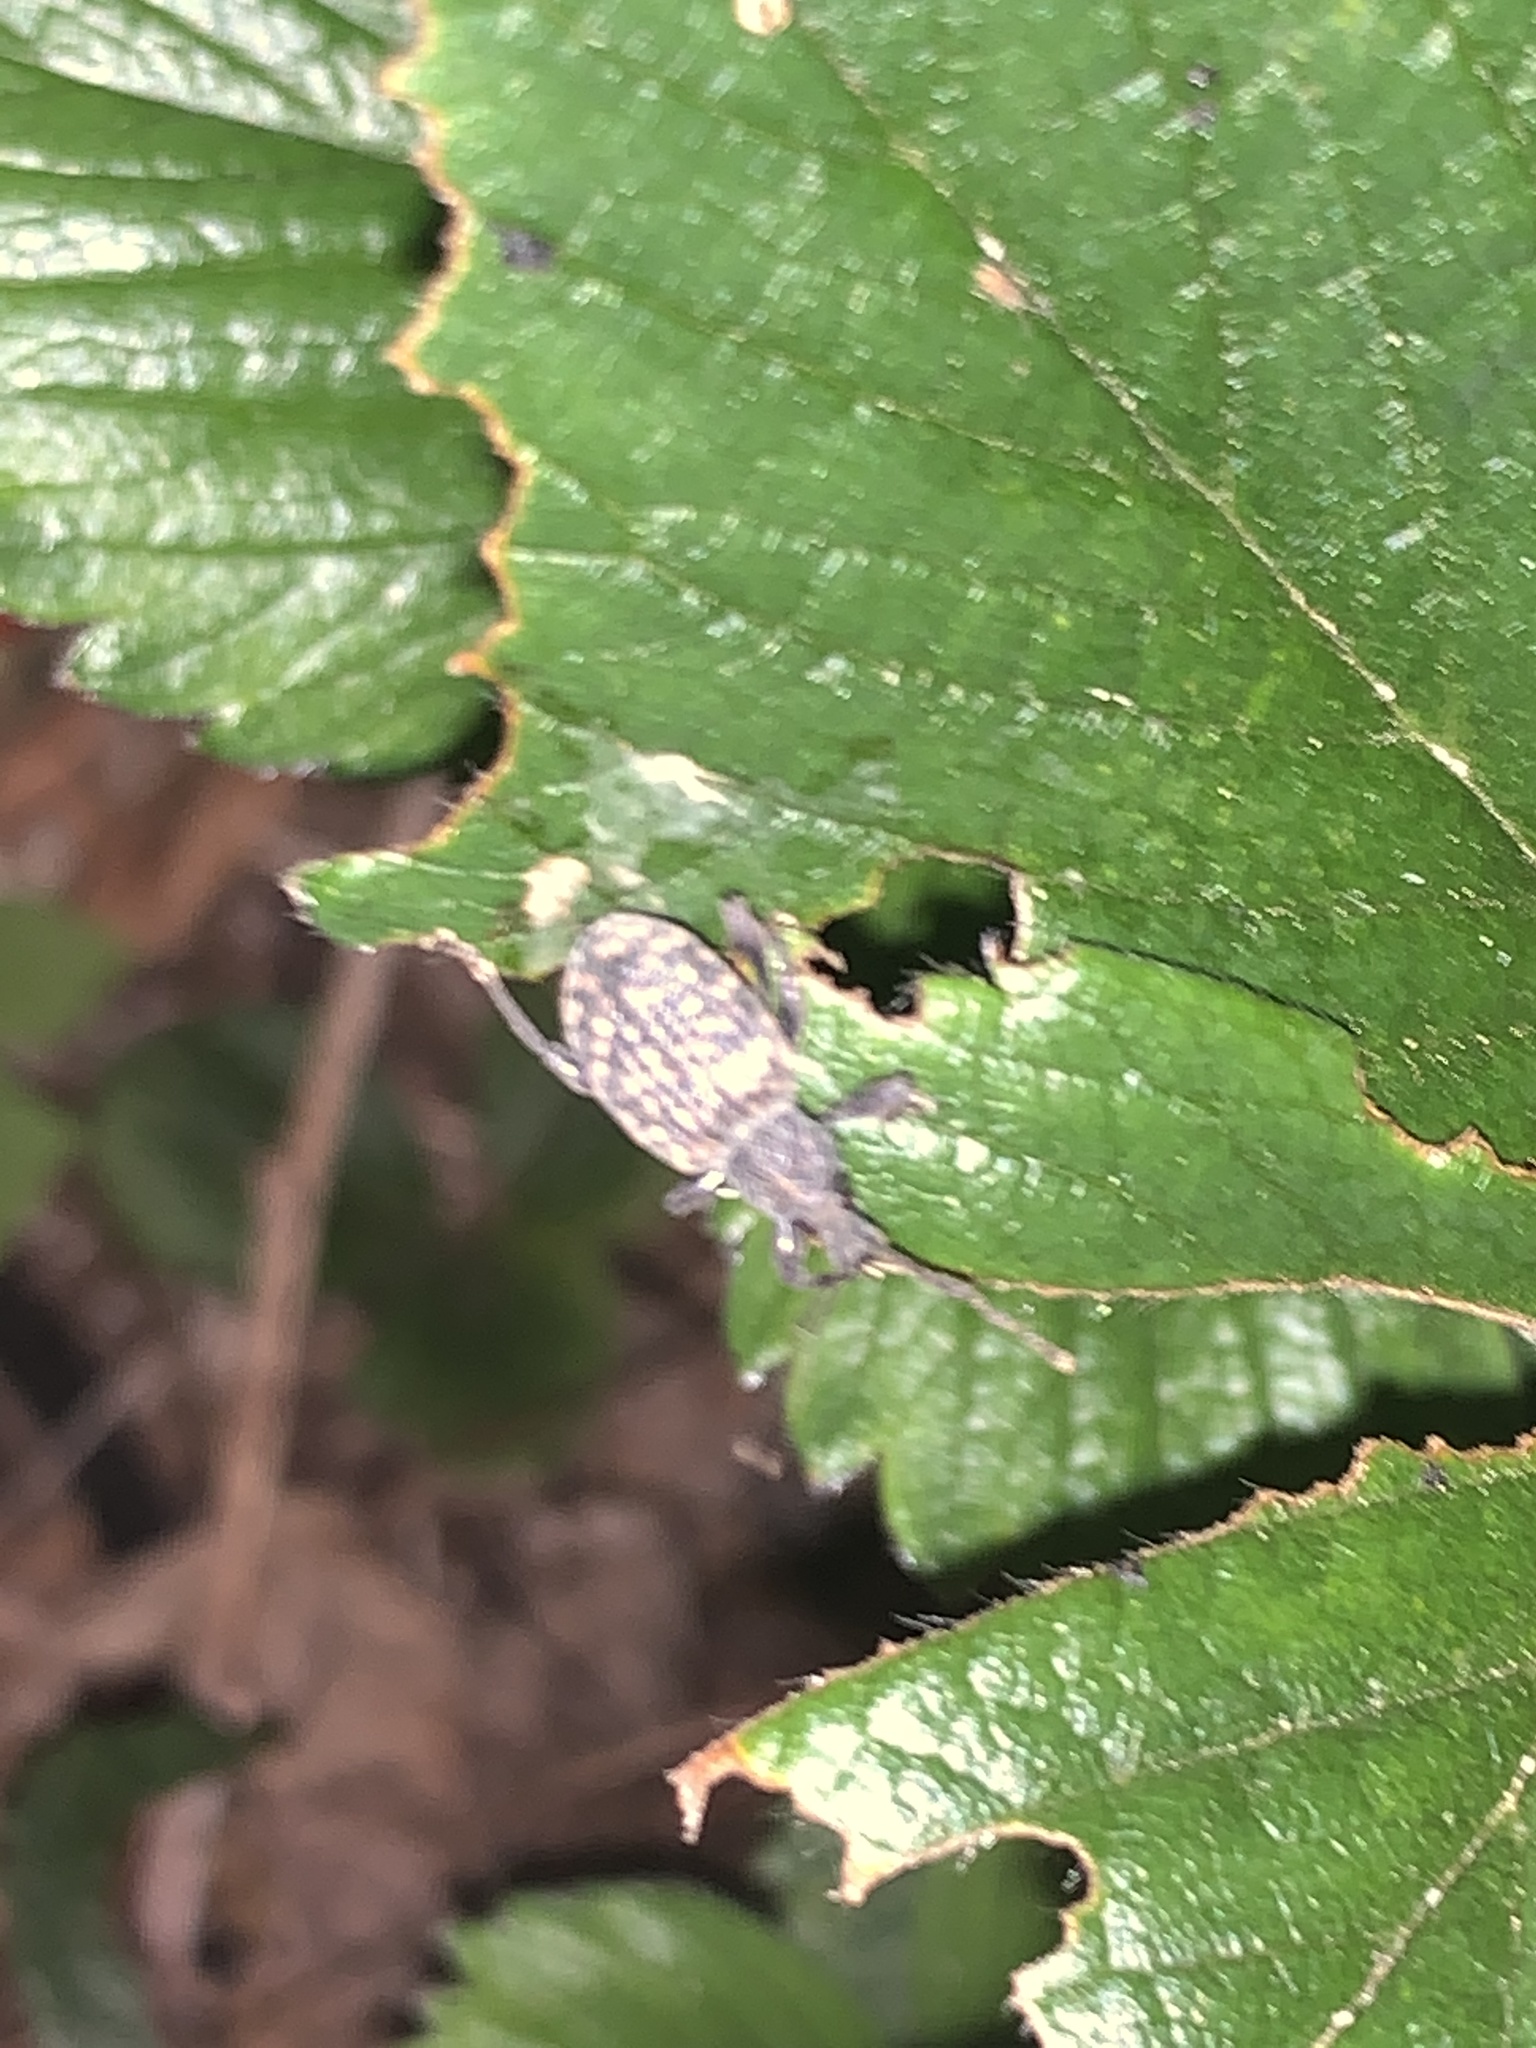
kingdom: Animalia
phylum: Arthropoda
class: Insecta
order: Coleoptera
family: Curculionidae
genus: Otiorhynchus
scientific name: Otiorhynchus sulcatus
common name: Black vine weevil
